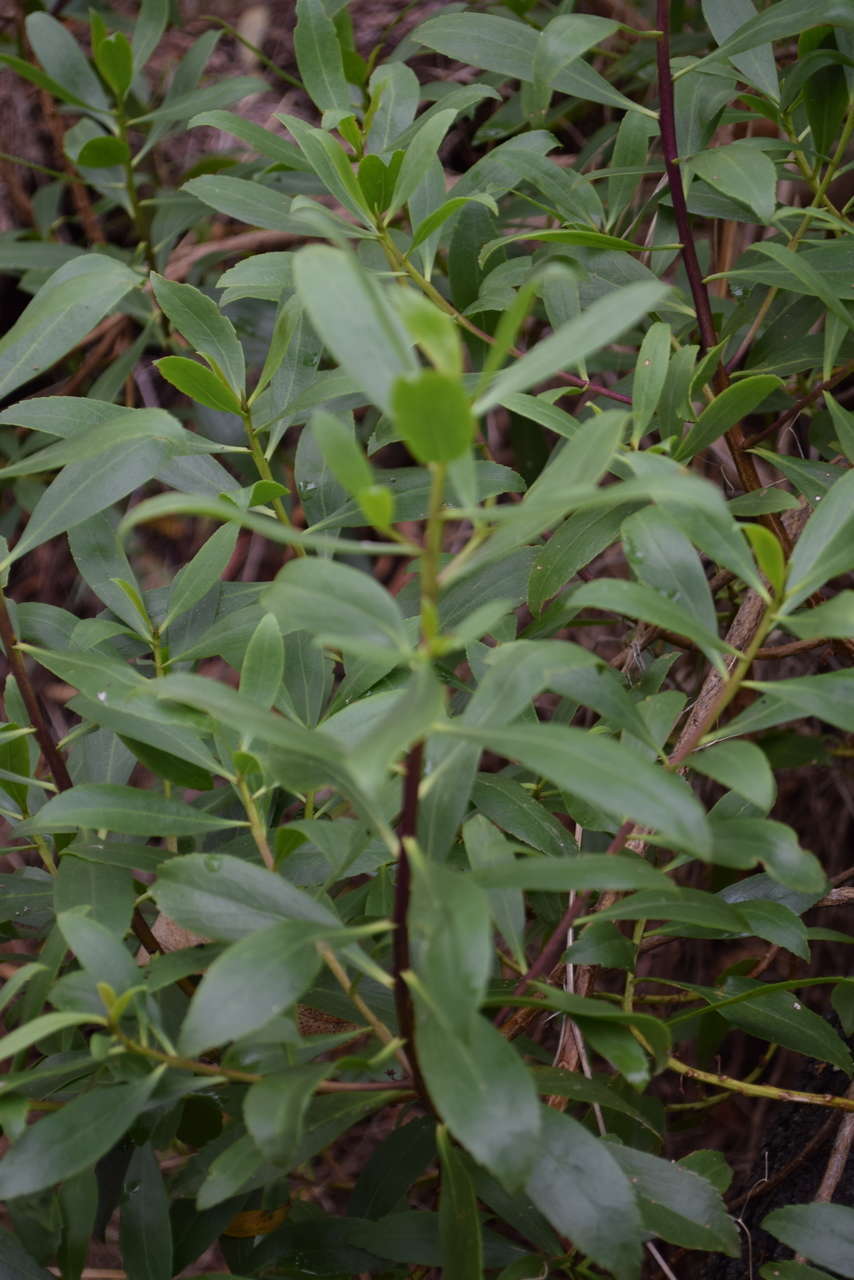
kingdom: Plantae
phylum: Tracheophyta
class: Magnoliopsida
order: Lamiales
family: Scrophulariaceae
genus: Myoporum
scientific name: Myoporum insulare
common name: Common boobialla
